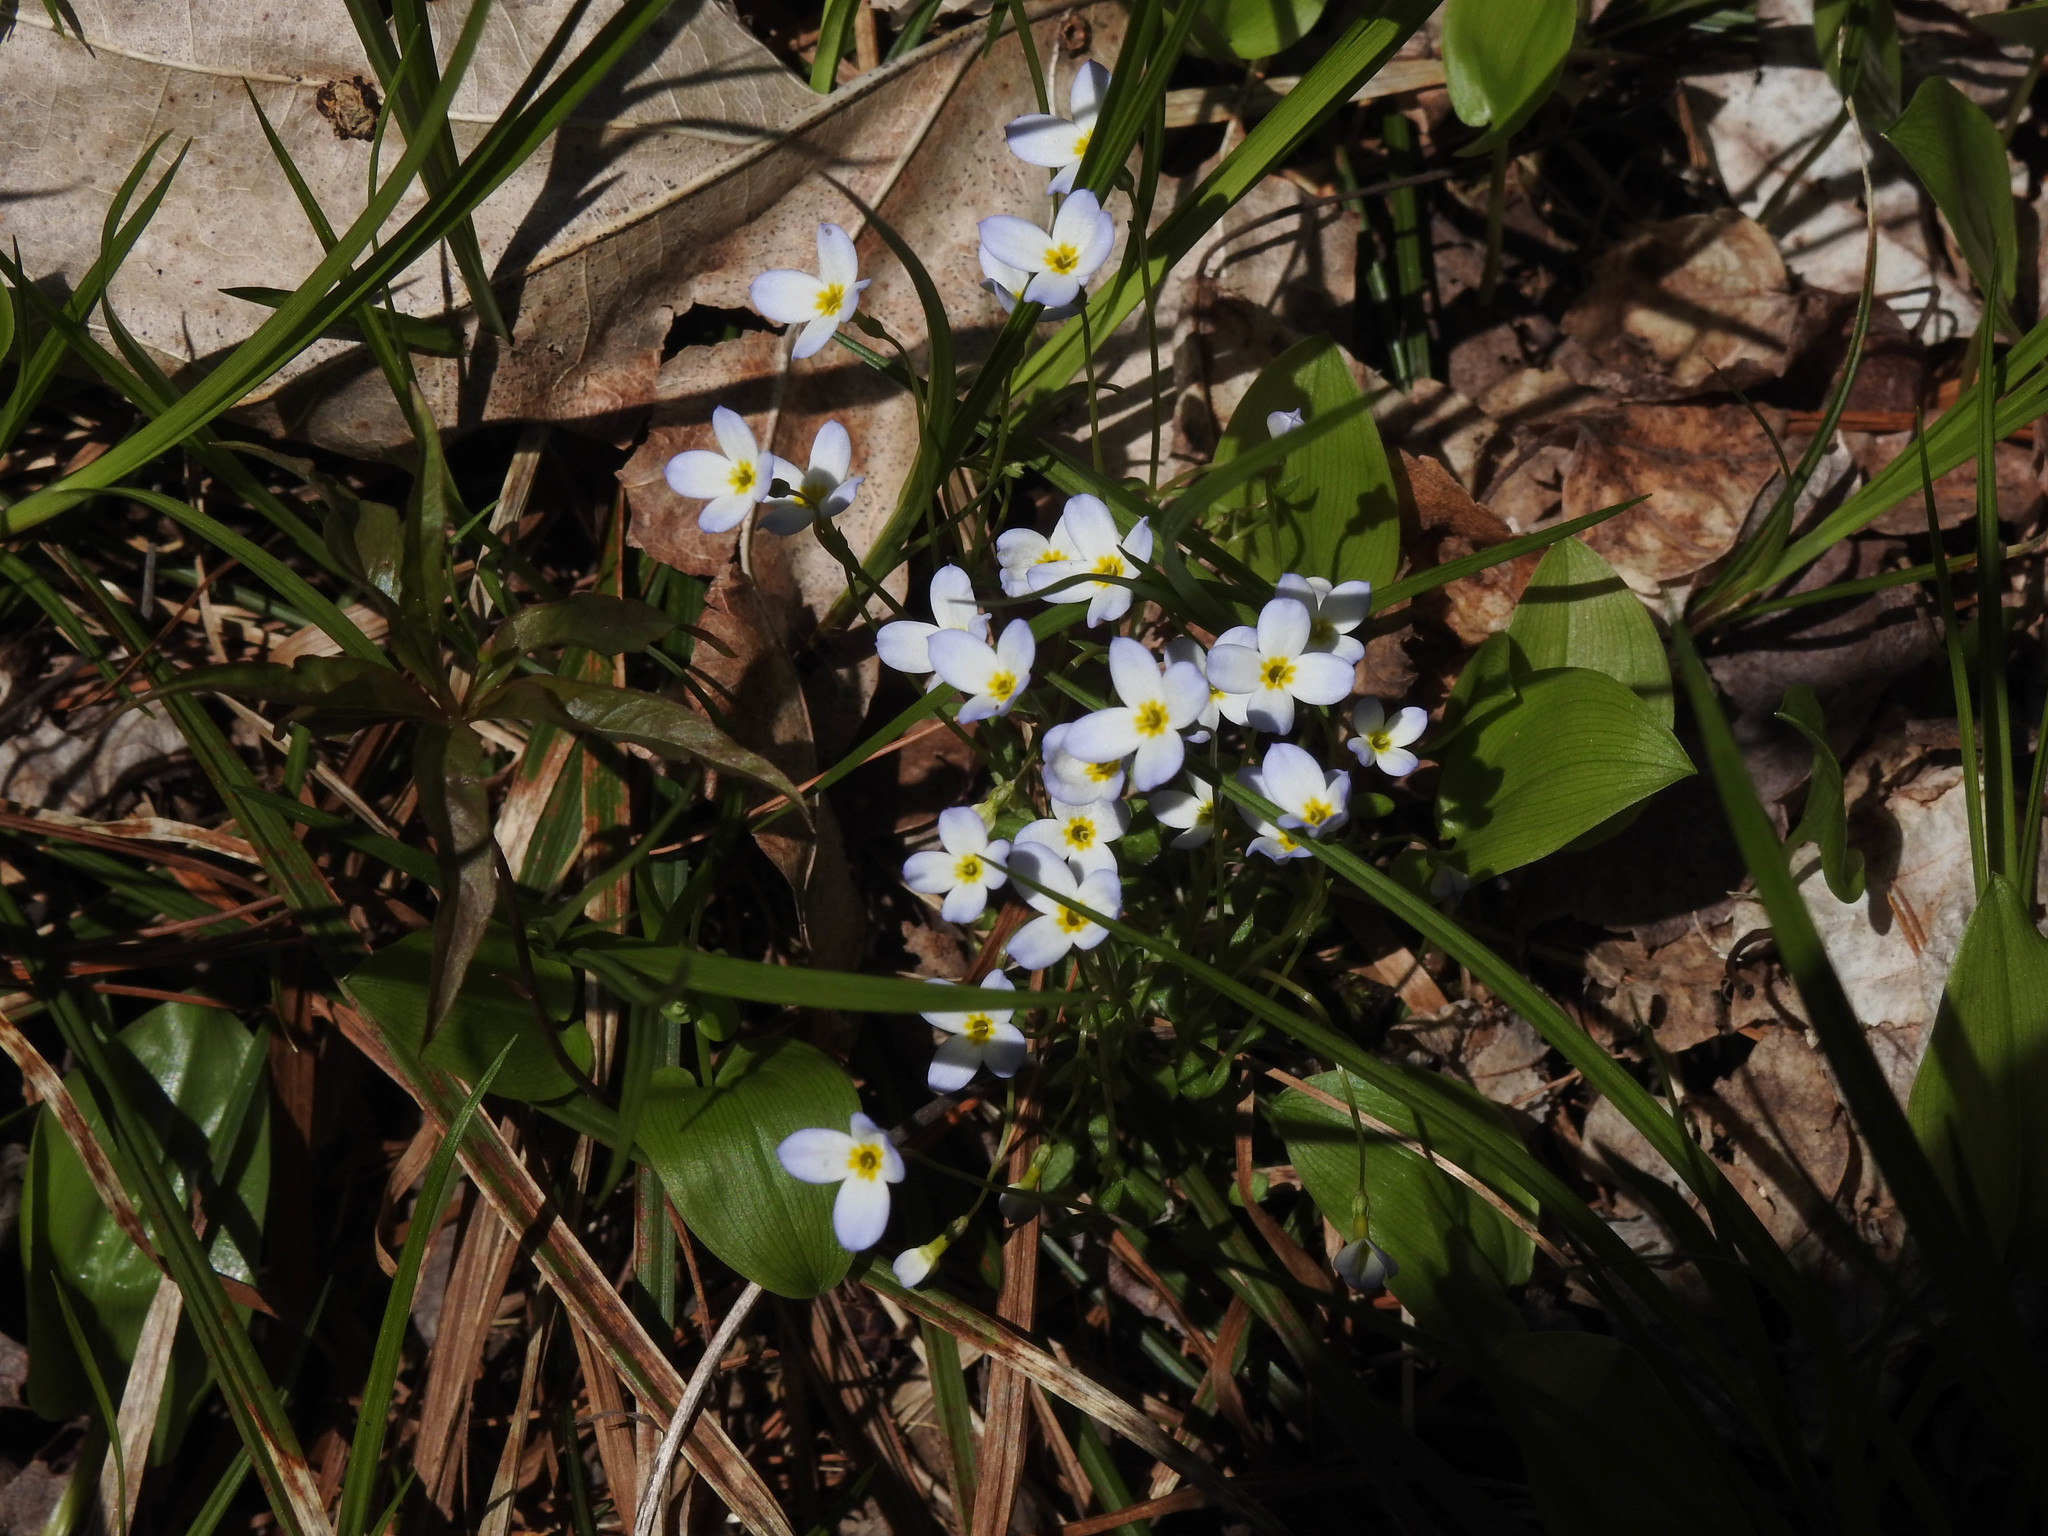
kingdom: Plantae
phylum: Tracheophyta
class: Magnoliopsida
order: Gentianales
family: Rubiaceae
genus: Houstonia
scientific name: Houstonia caerulea
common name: Bluets
